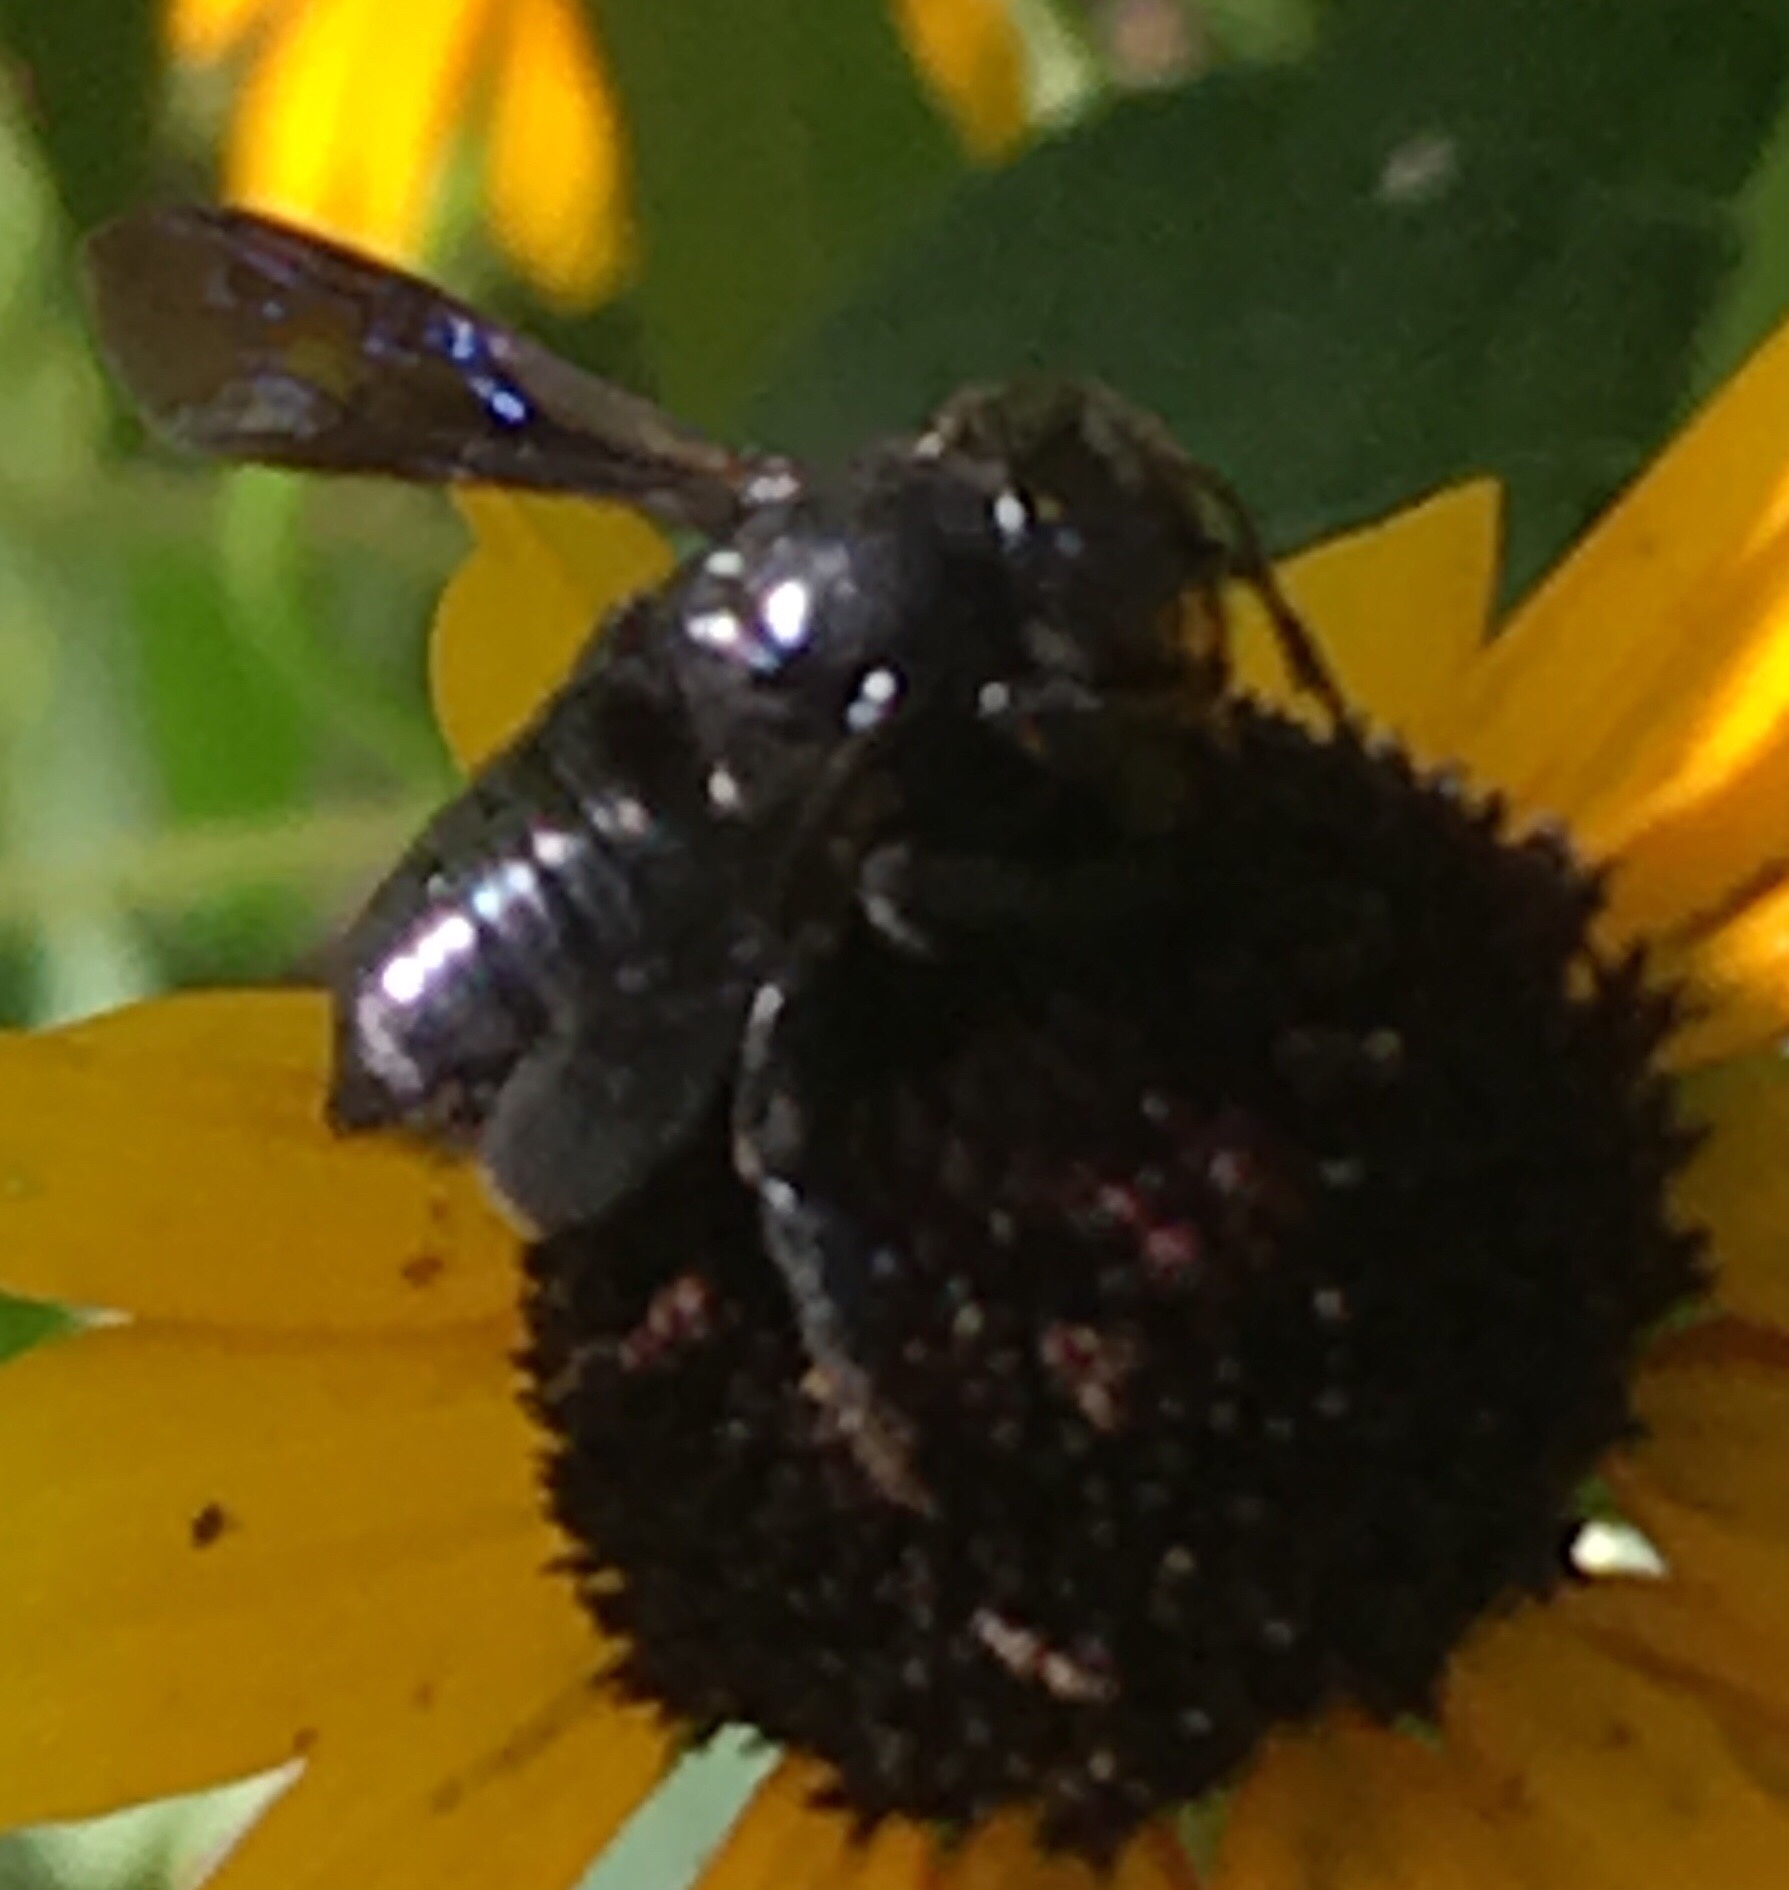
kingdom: Animalia
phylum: Arthropoda
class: Insecta
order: Hymenoptera
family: Megachilidae
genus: Megachile
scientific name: Megachile xylocopoides
